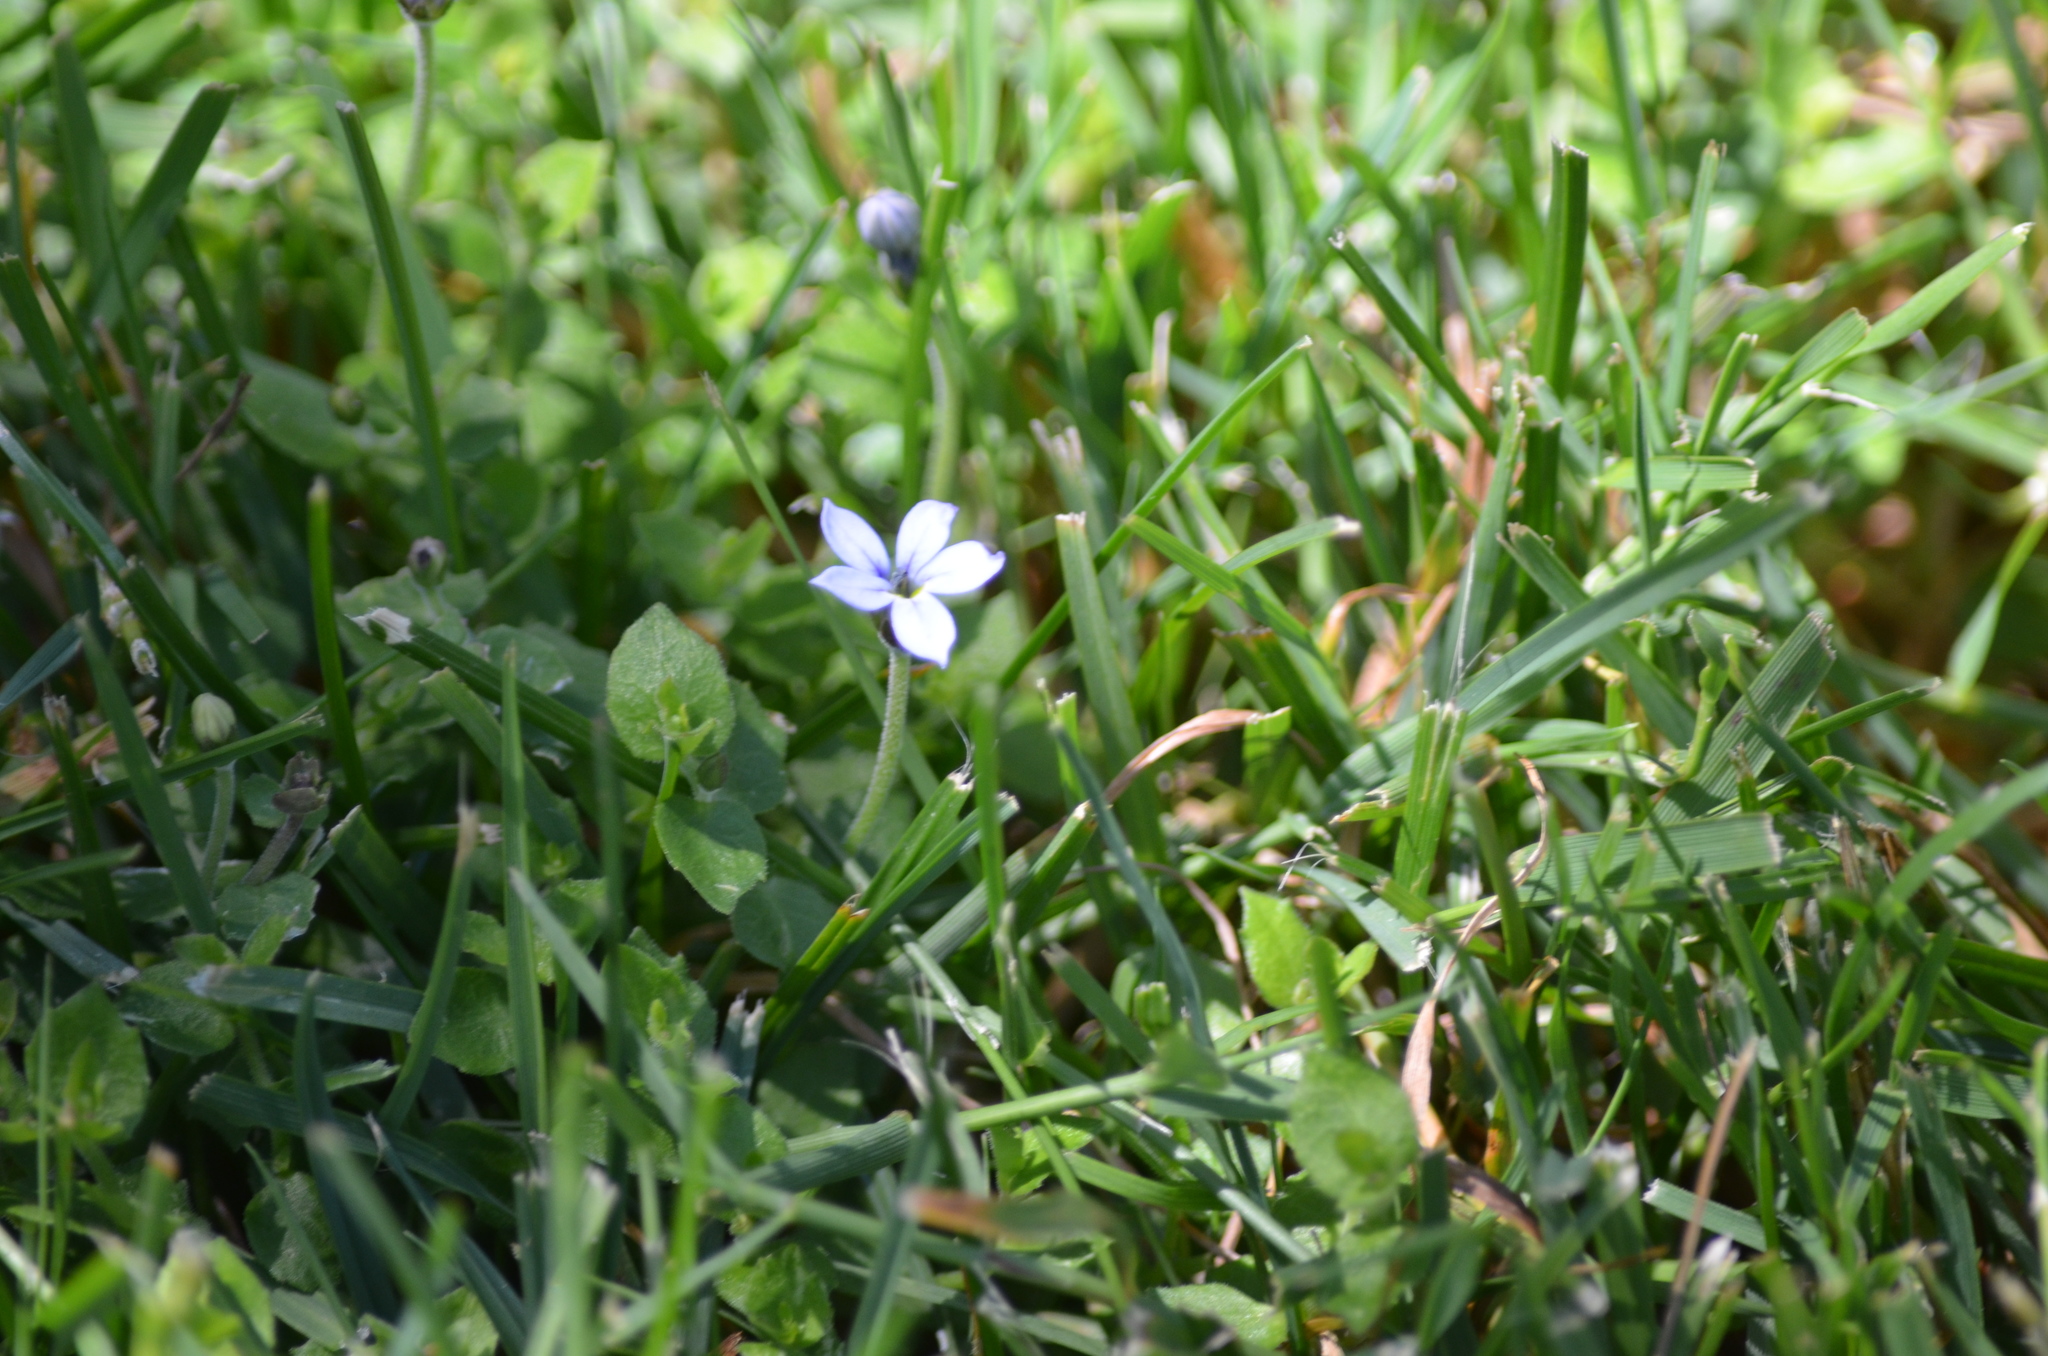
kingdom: Plantae
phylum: Tracheophyta
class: Magnoliopsida
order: Asterales
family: Campanulaceae
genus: Lobelia
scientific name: Lobelia pedunculata
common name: Matted pratia
